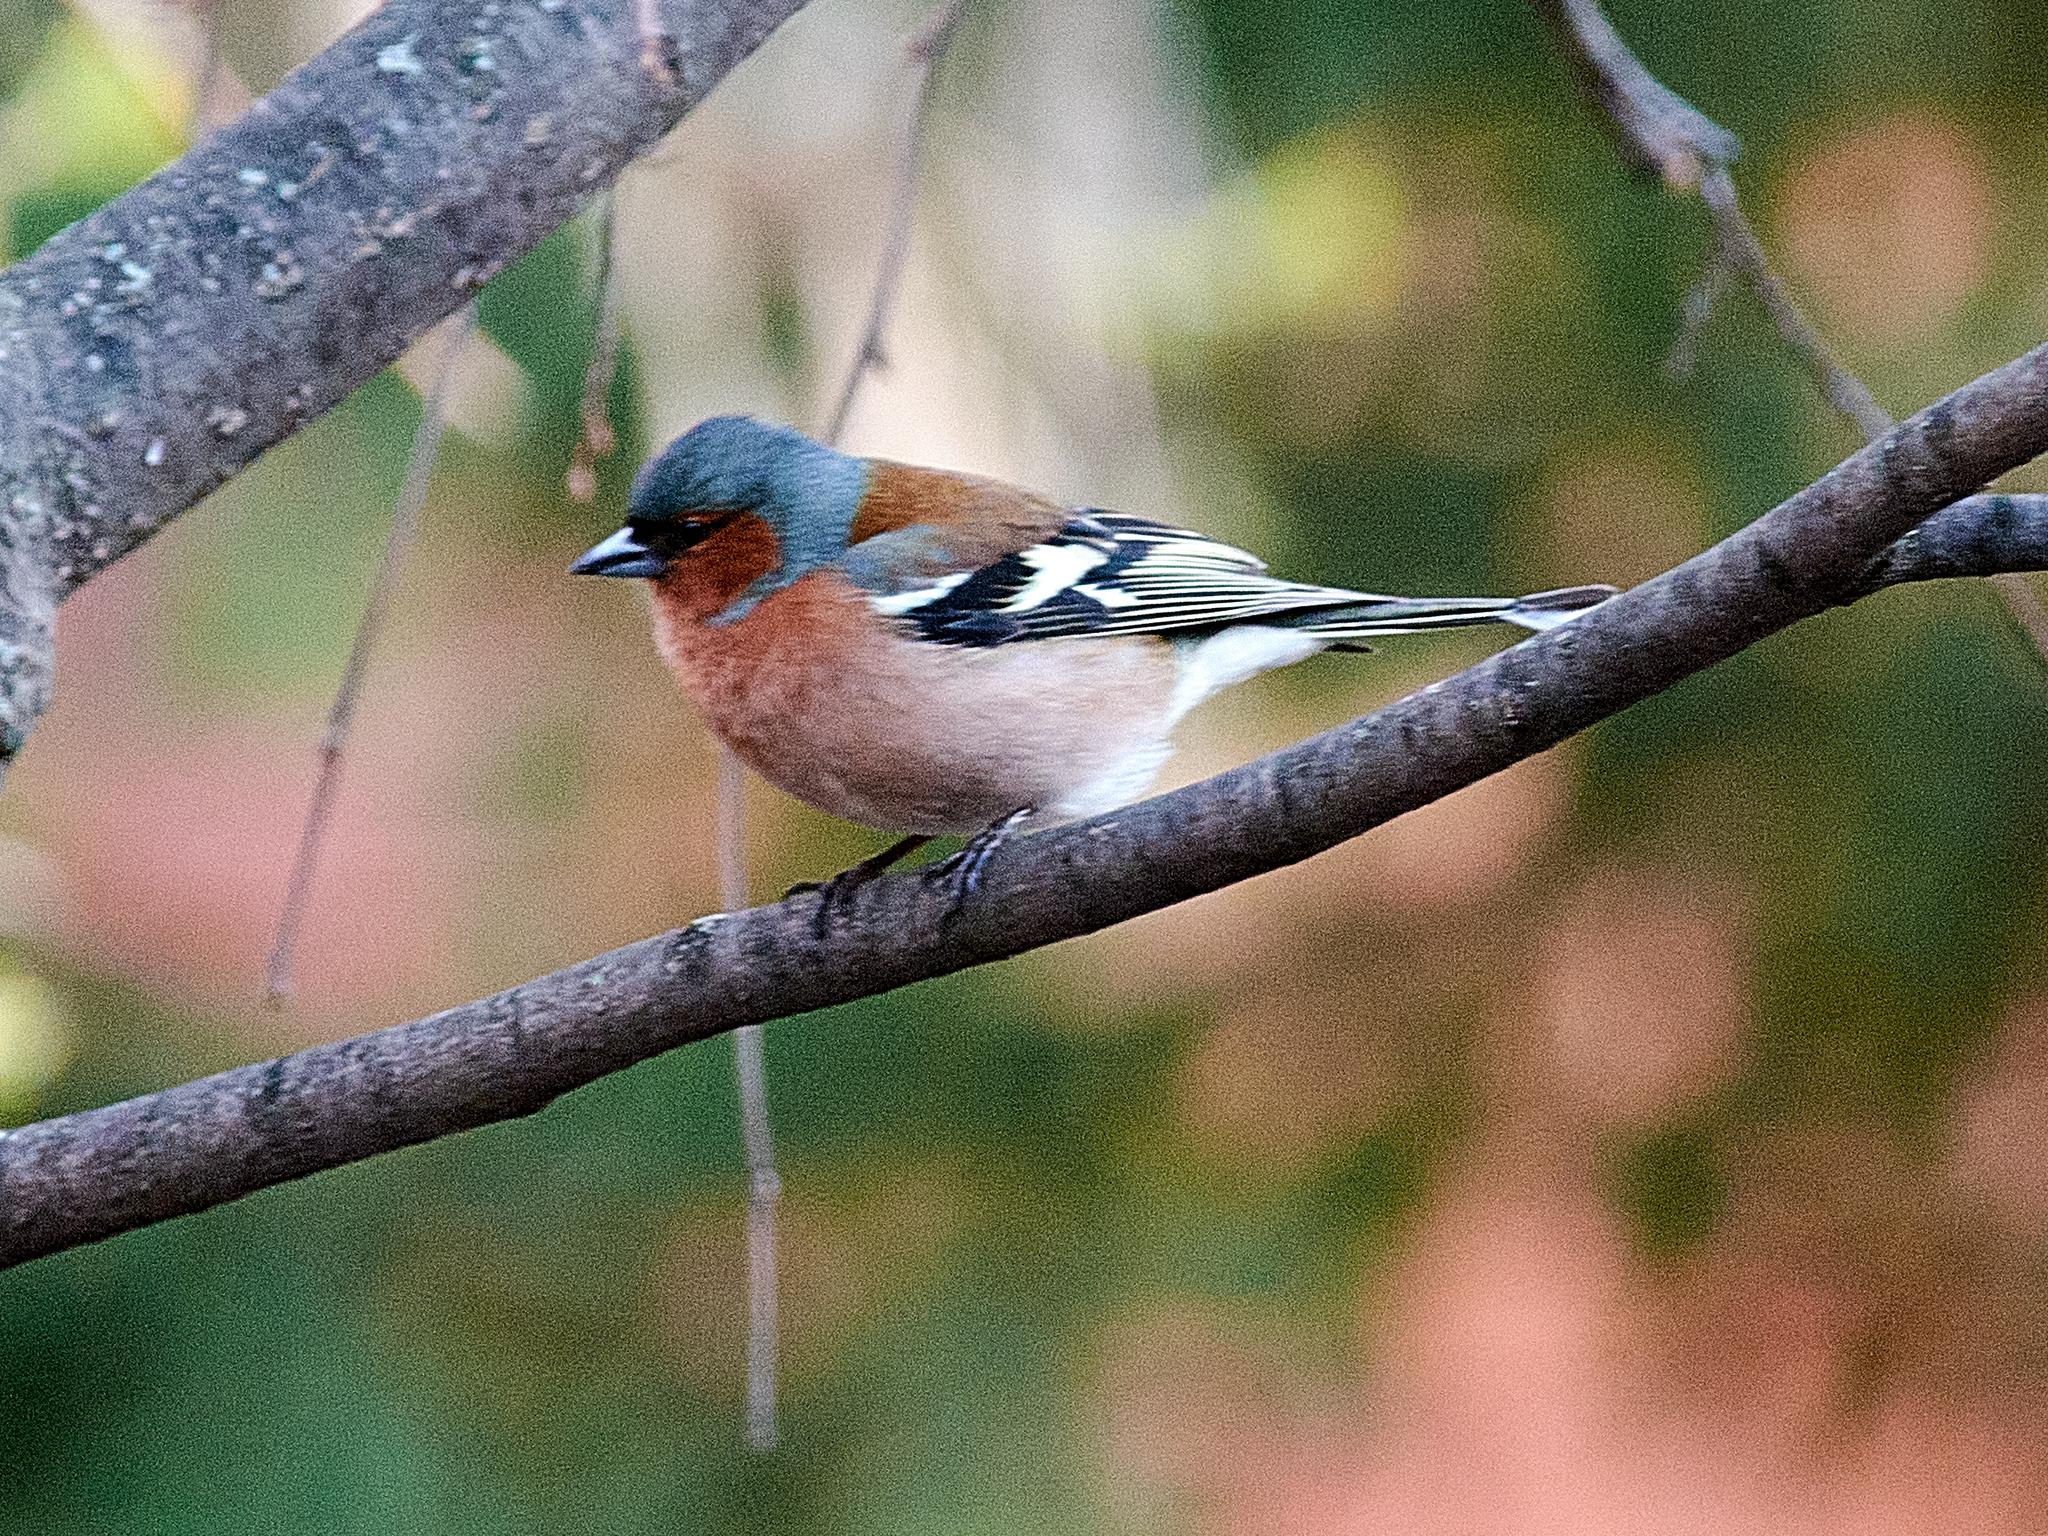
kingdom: Animalia
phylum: Chordata
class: Aves
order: Passeriformes
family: Fringillidae
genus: Fringilla
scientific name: Fringilla coelebs
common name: Common chaffinch
